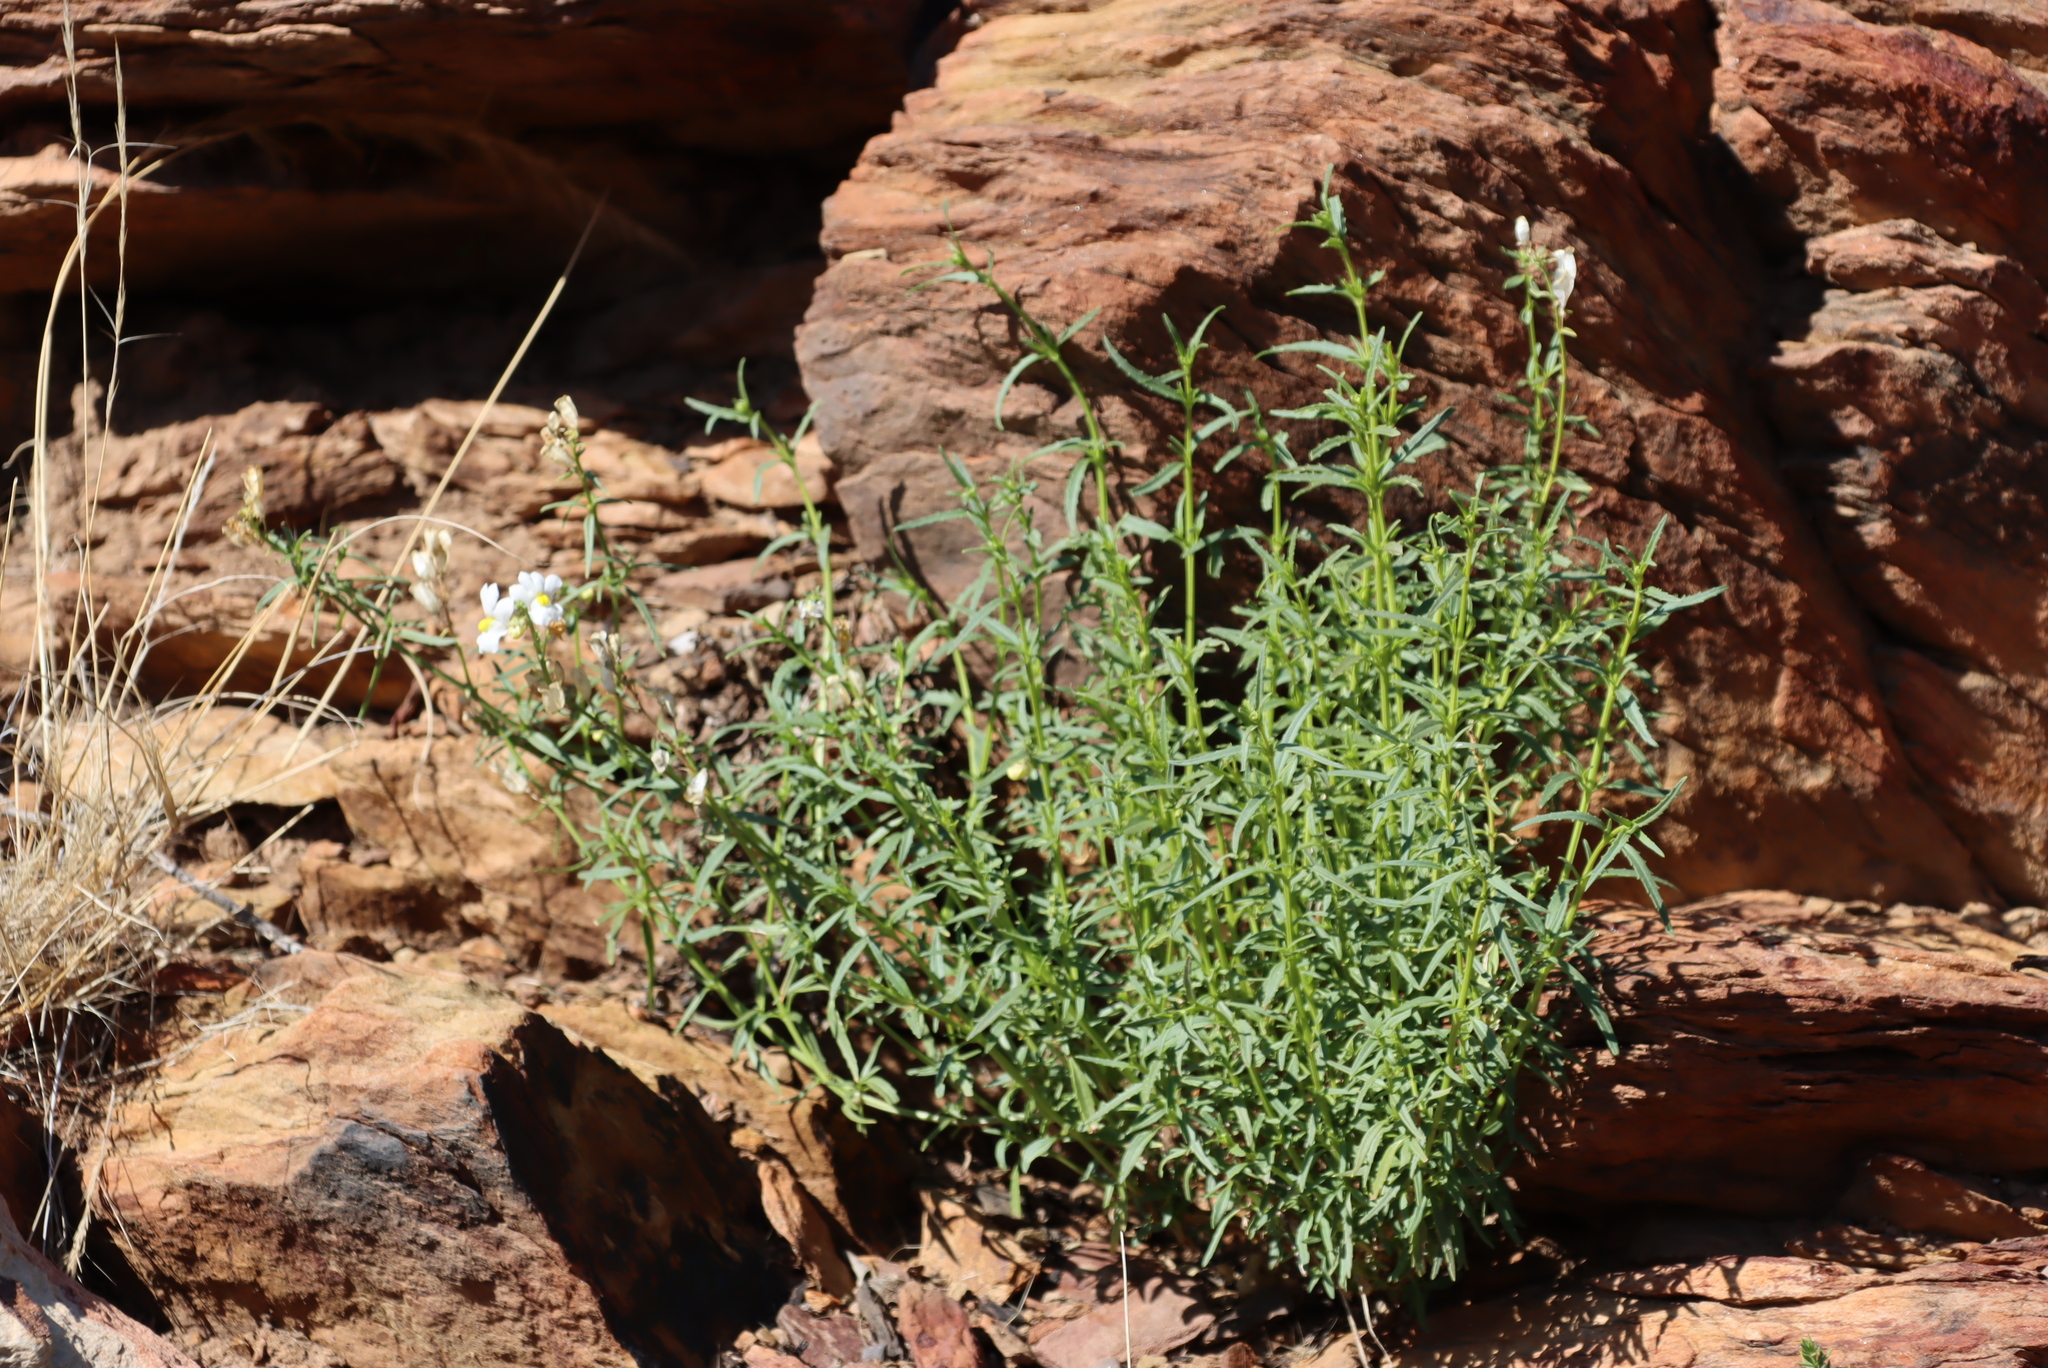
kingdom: Plantae
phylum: Tracheophyta
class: Magnoliopsida
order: Lamiales
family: Scrophulariaceae
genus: Nemesia
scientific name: Nemesia fruticans
